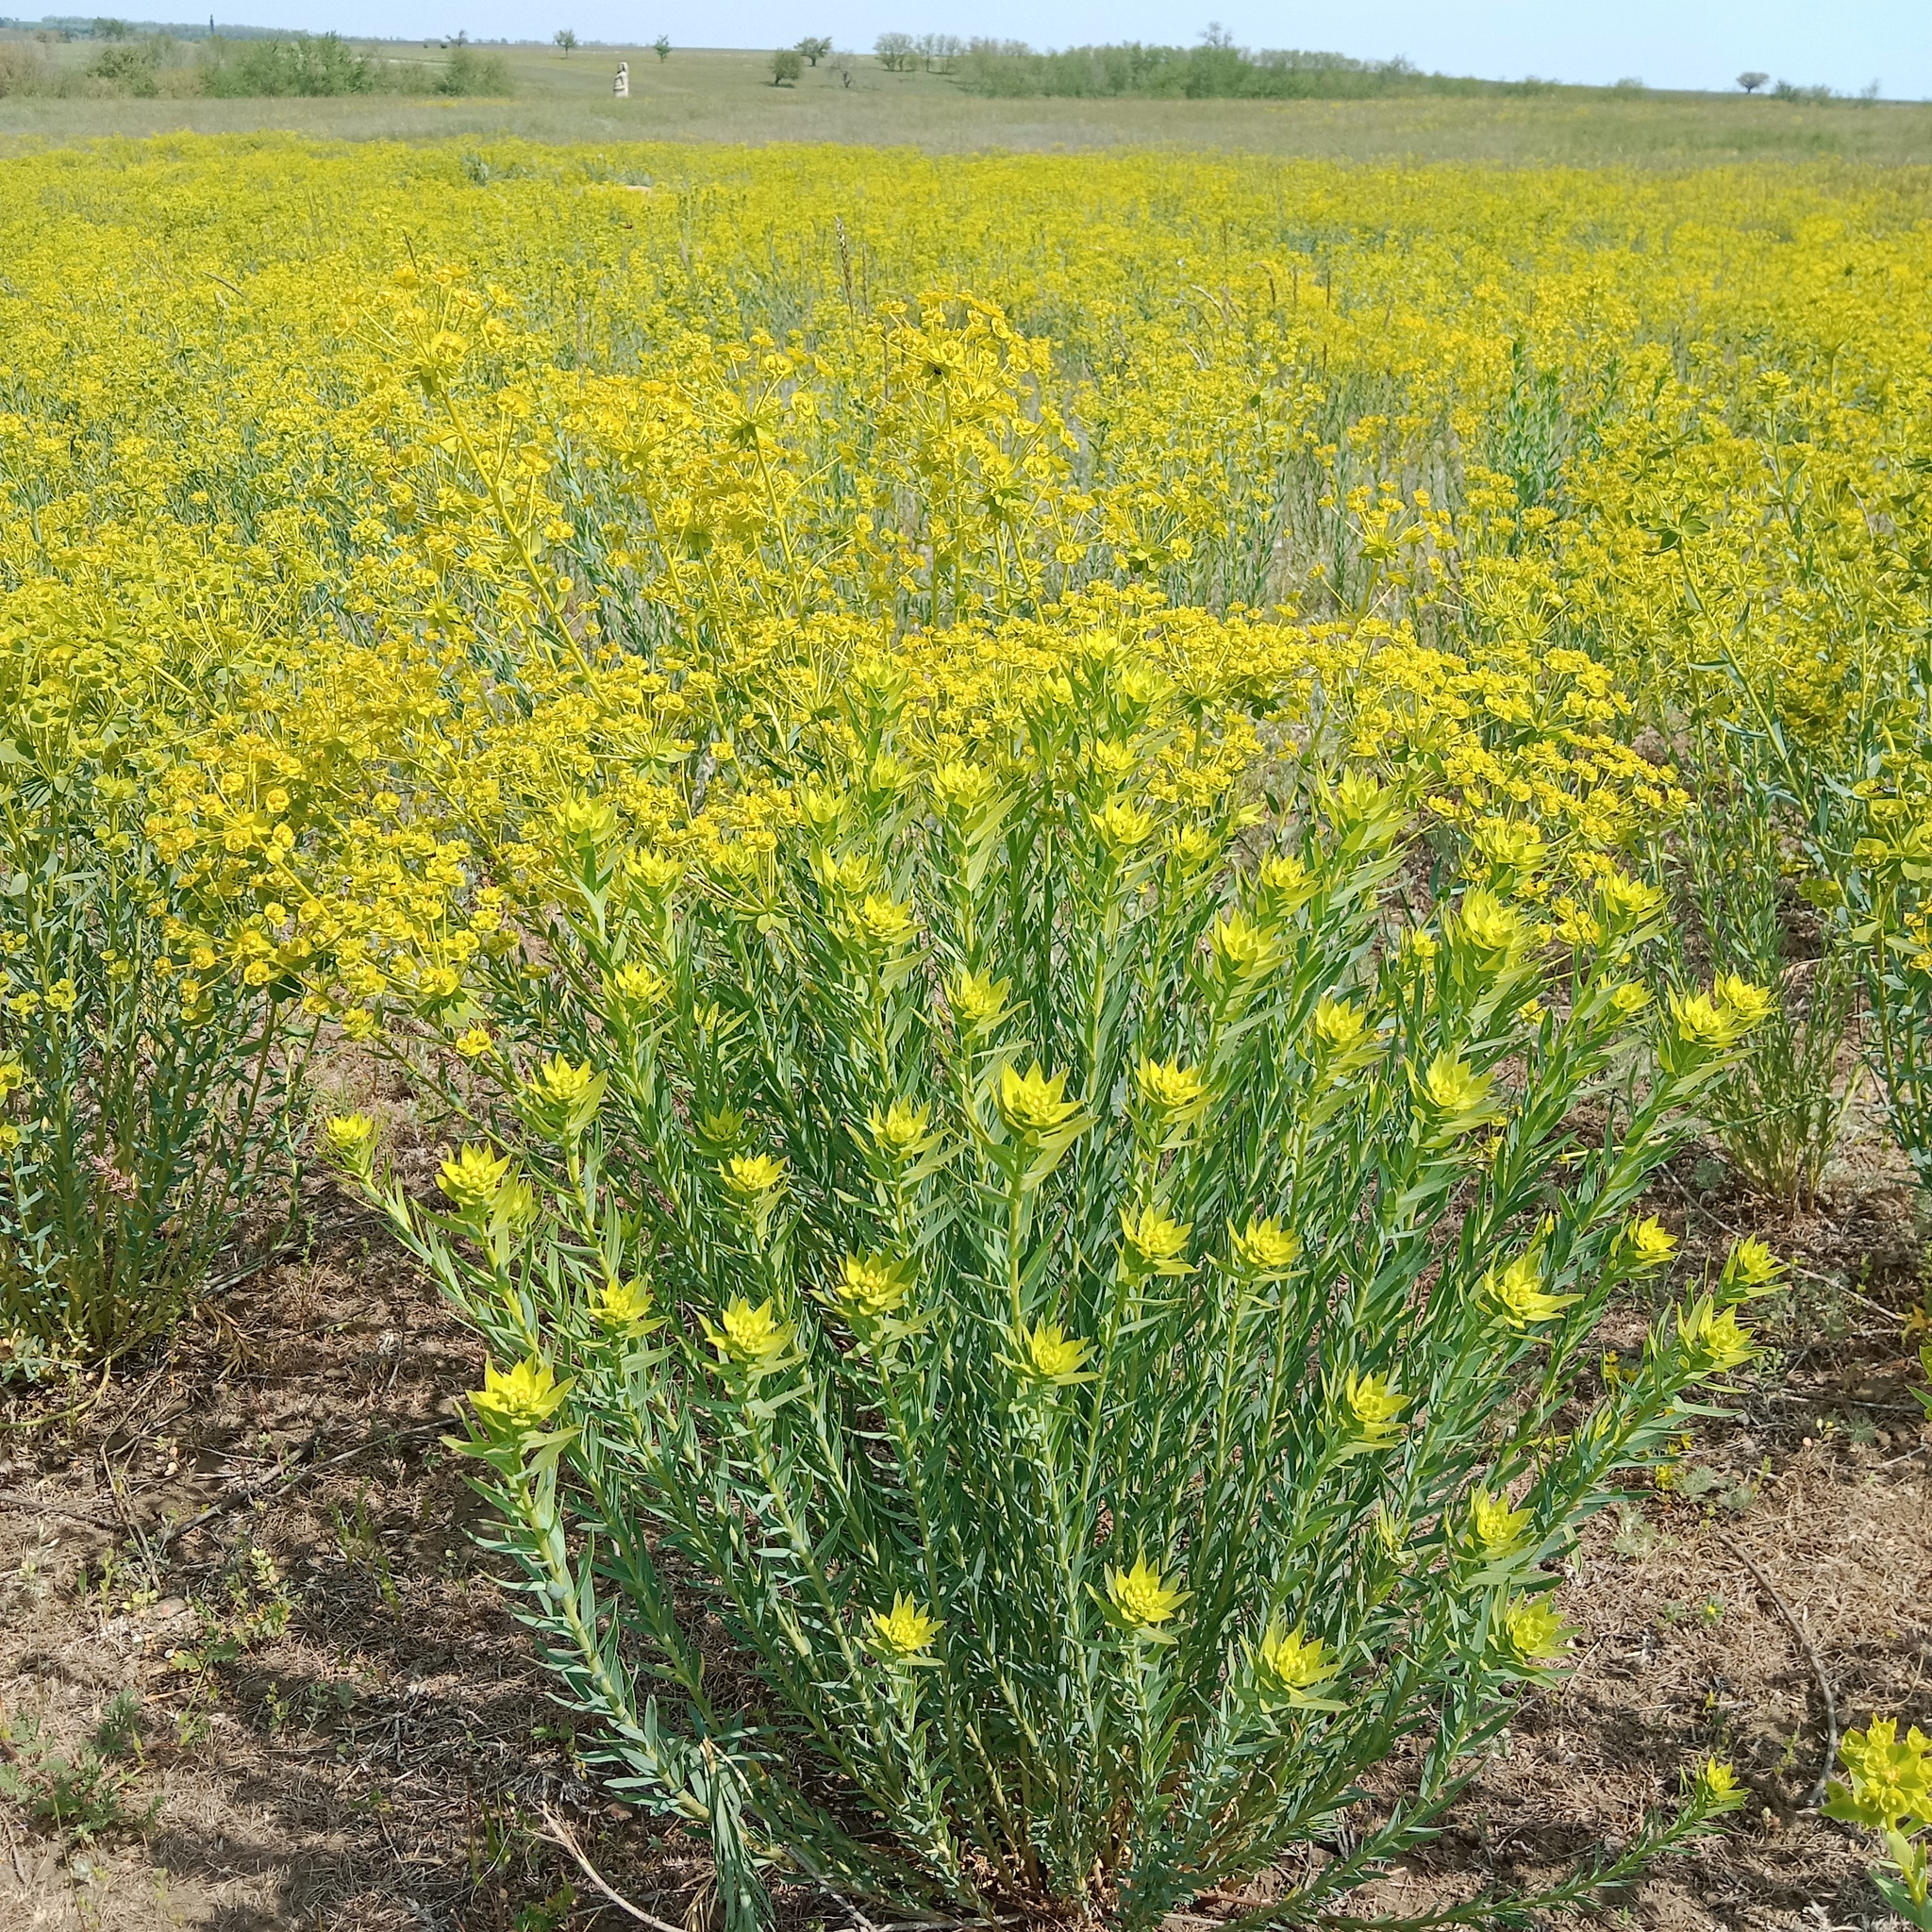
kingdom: Plantae
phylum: Tracheophyta
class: Magnoliopsida
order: Malpighiales
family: Euphorbiaceae
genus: Euphorbia
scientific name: Euphorbia seguieriana
